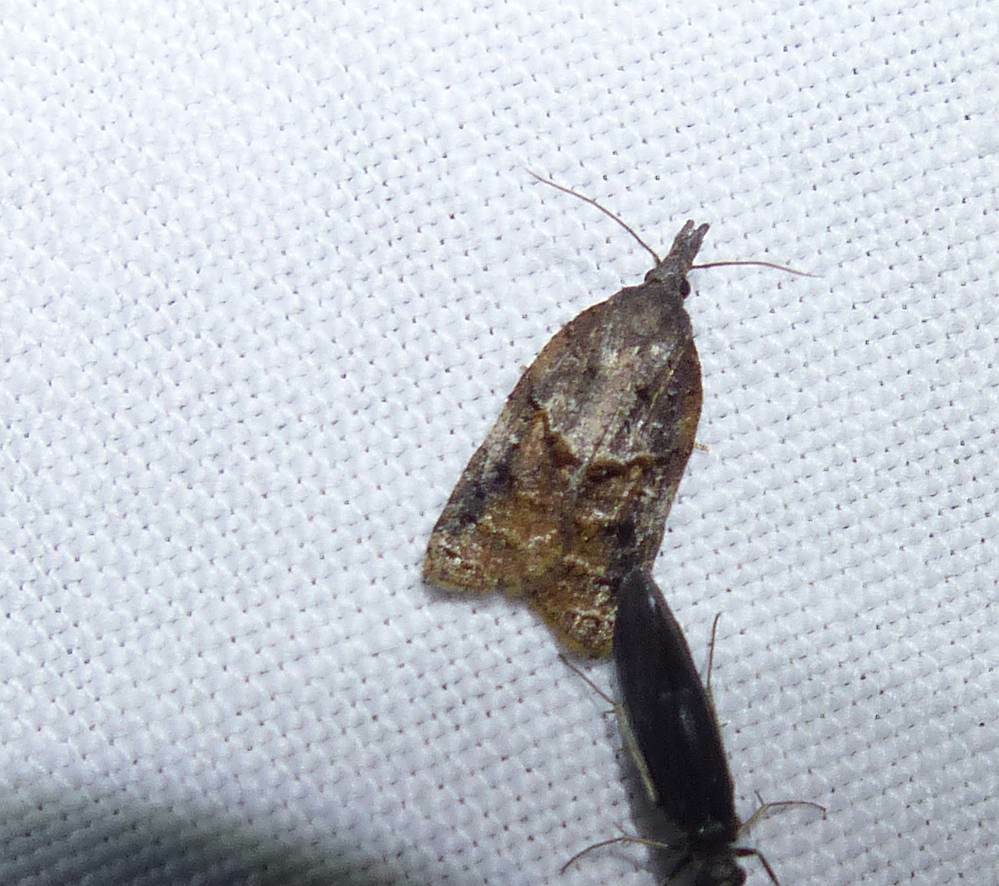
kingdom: Animalia
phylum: Arthropoda
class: Insecta
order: Lepidoptera
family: Tortricidae
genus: Platynota
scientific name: Platynota idaeusalis
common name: Tufted apple bud moth
